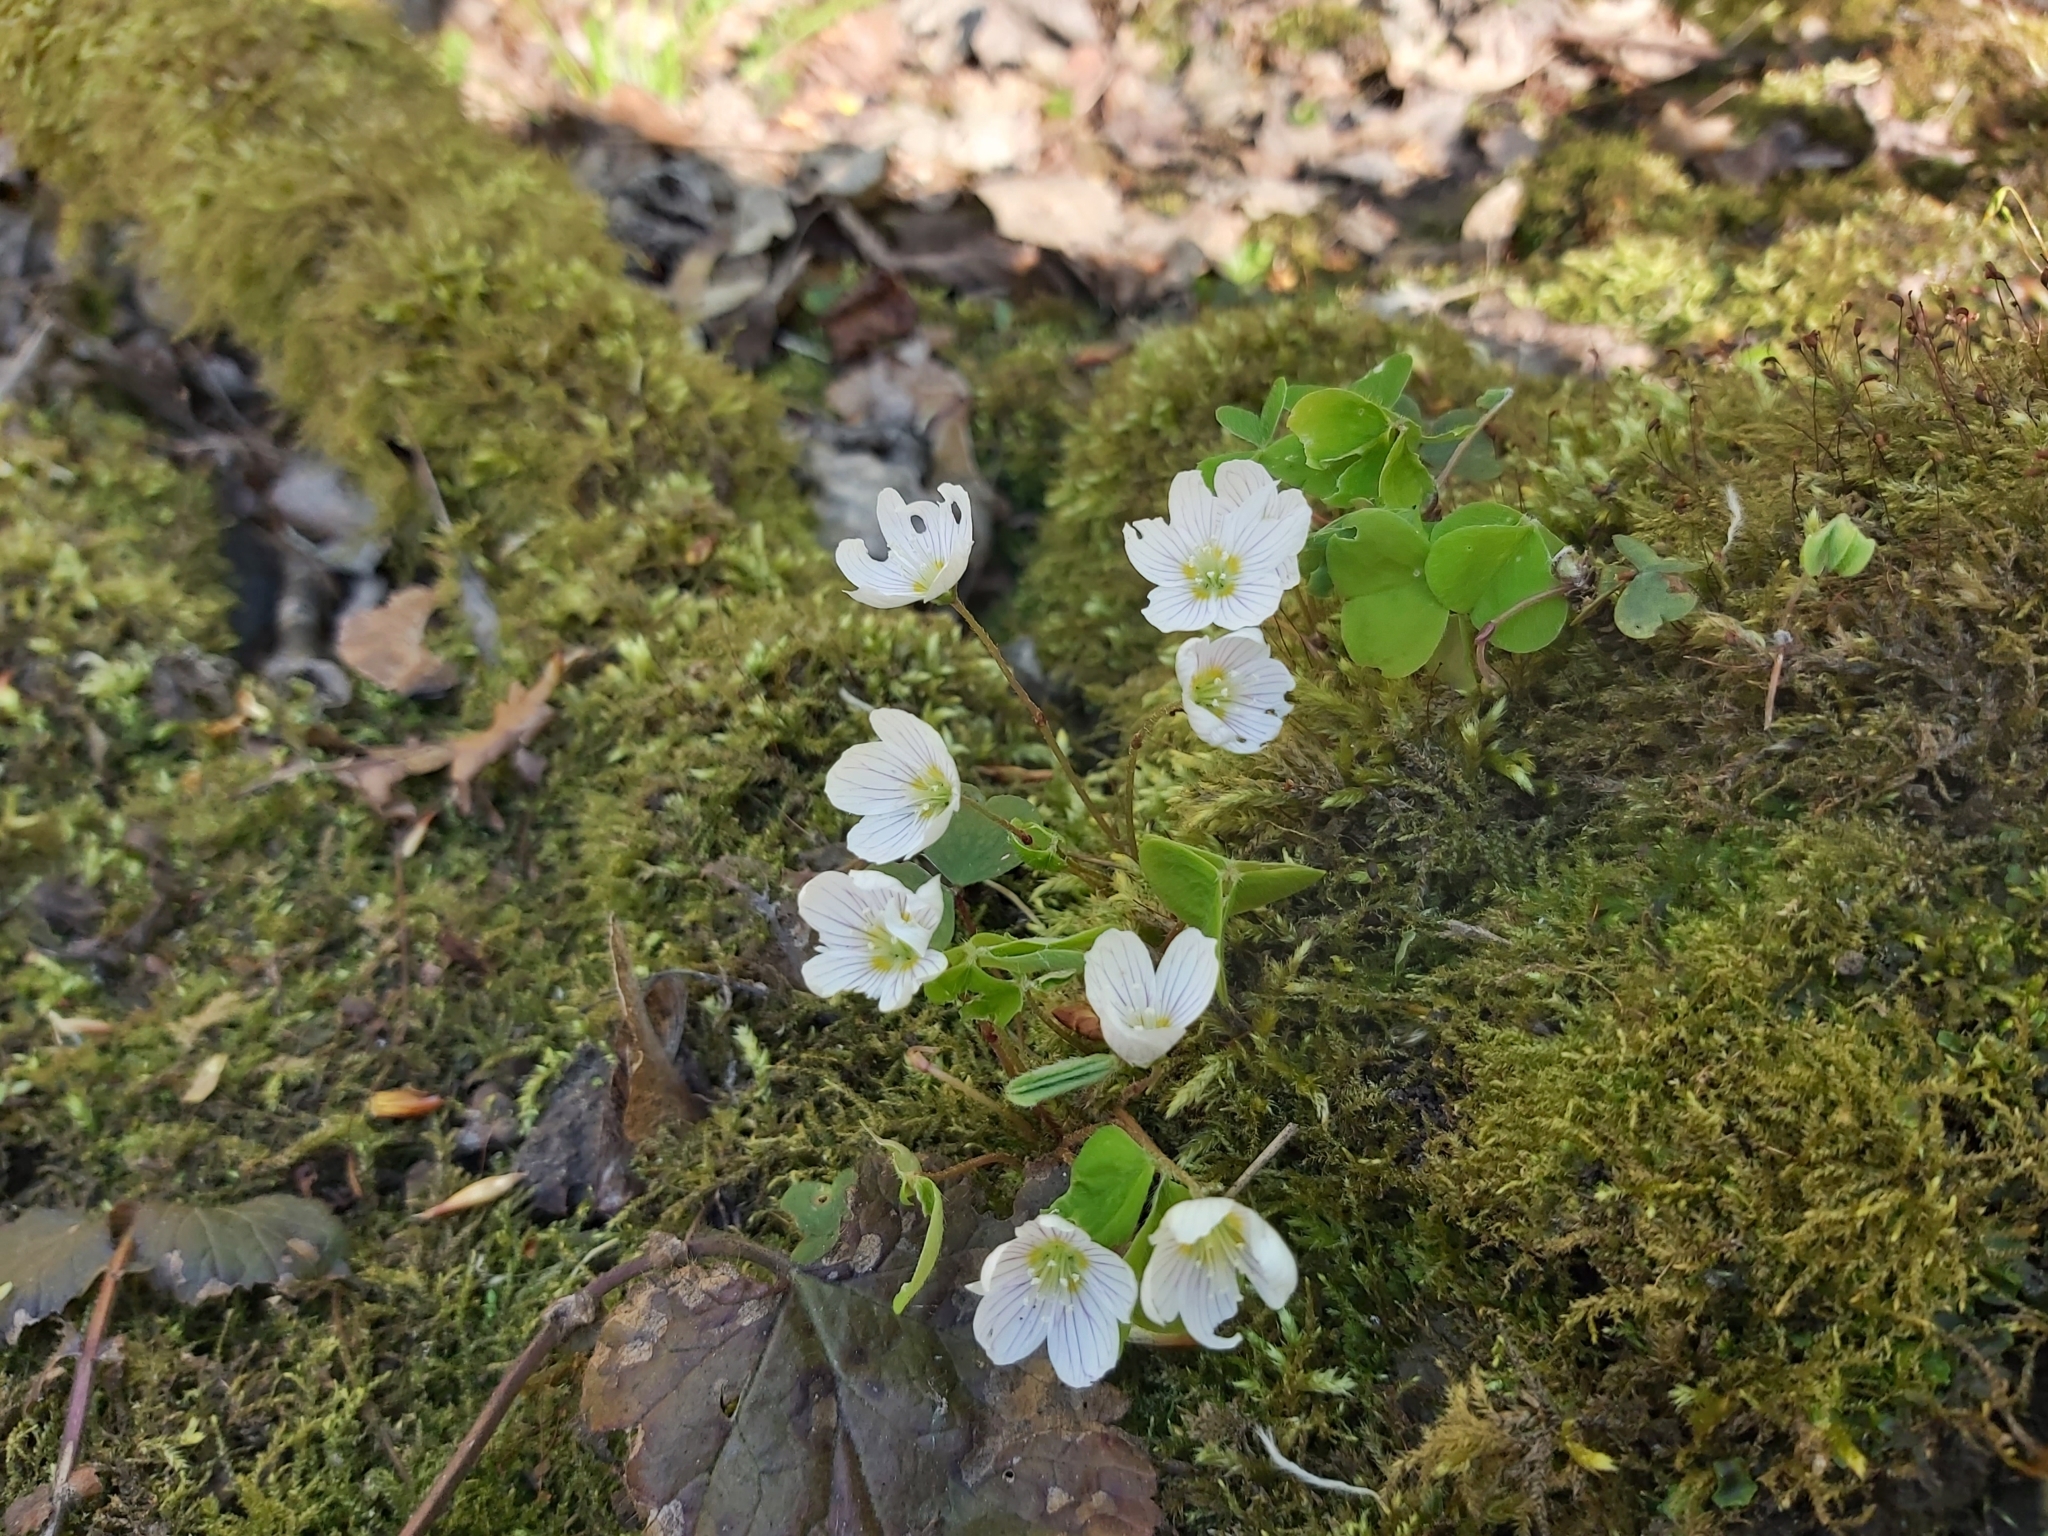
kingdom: Plantae
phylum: Tracheophyta
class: Magnoliopsida
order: Oxalidales
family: Oxalidaceae
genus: Oxalis
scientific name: Oxalis acetosella
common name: Wood-sorrel
